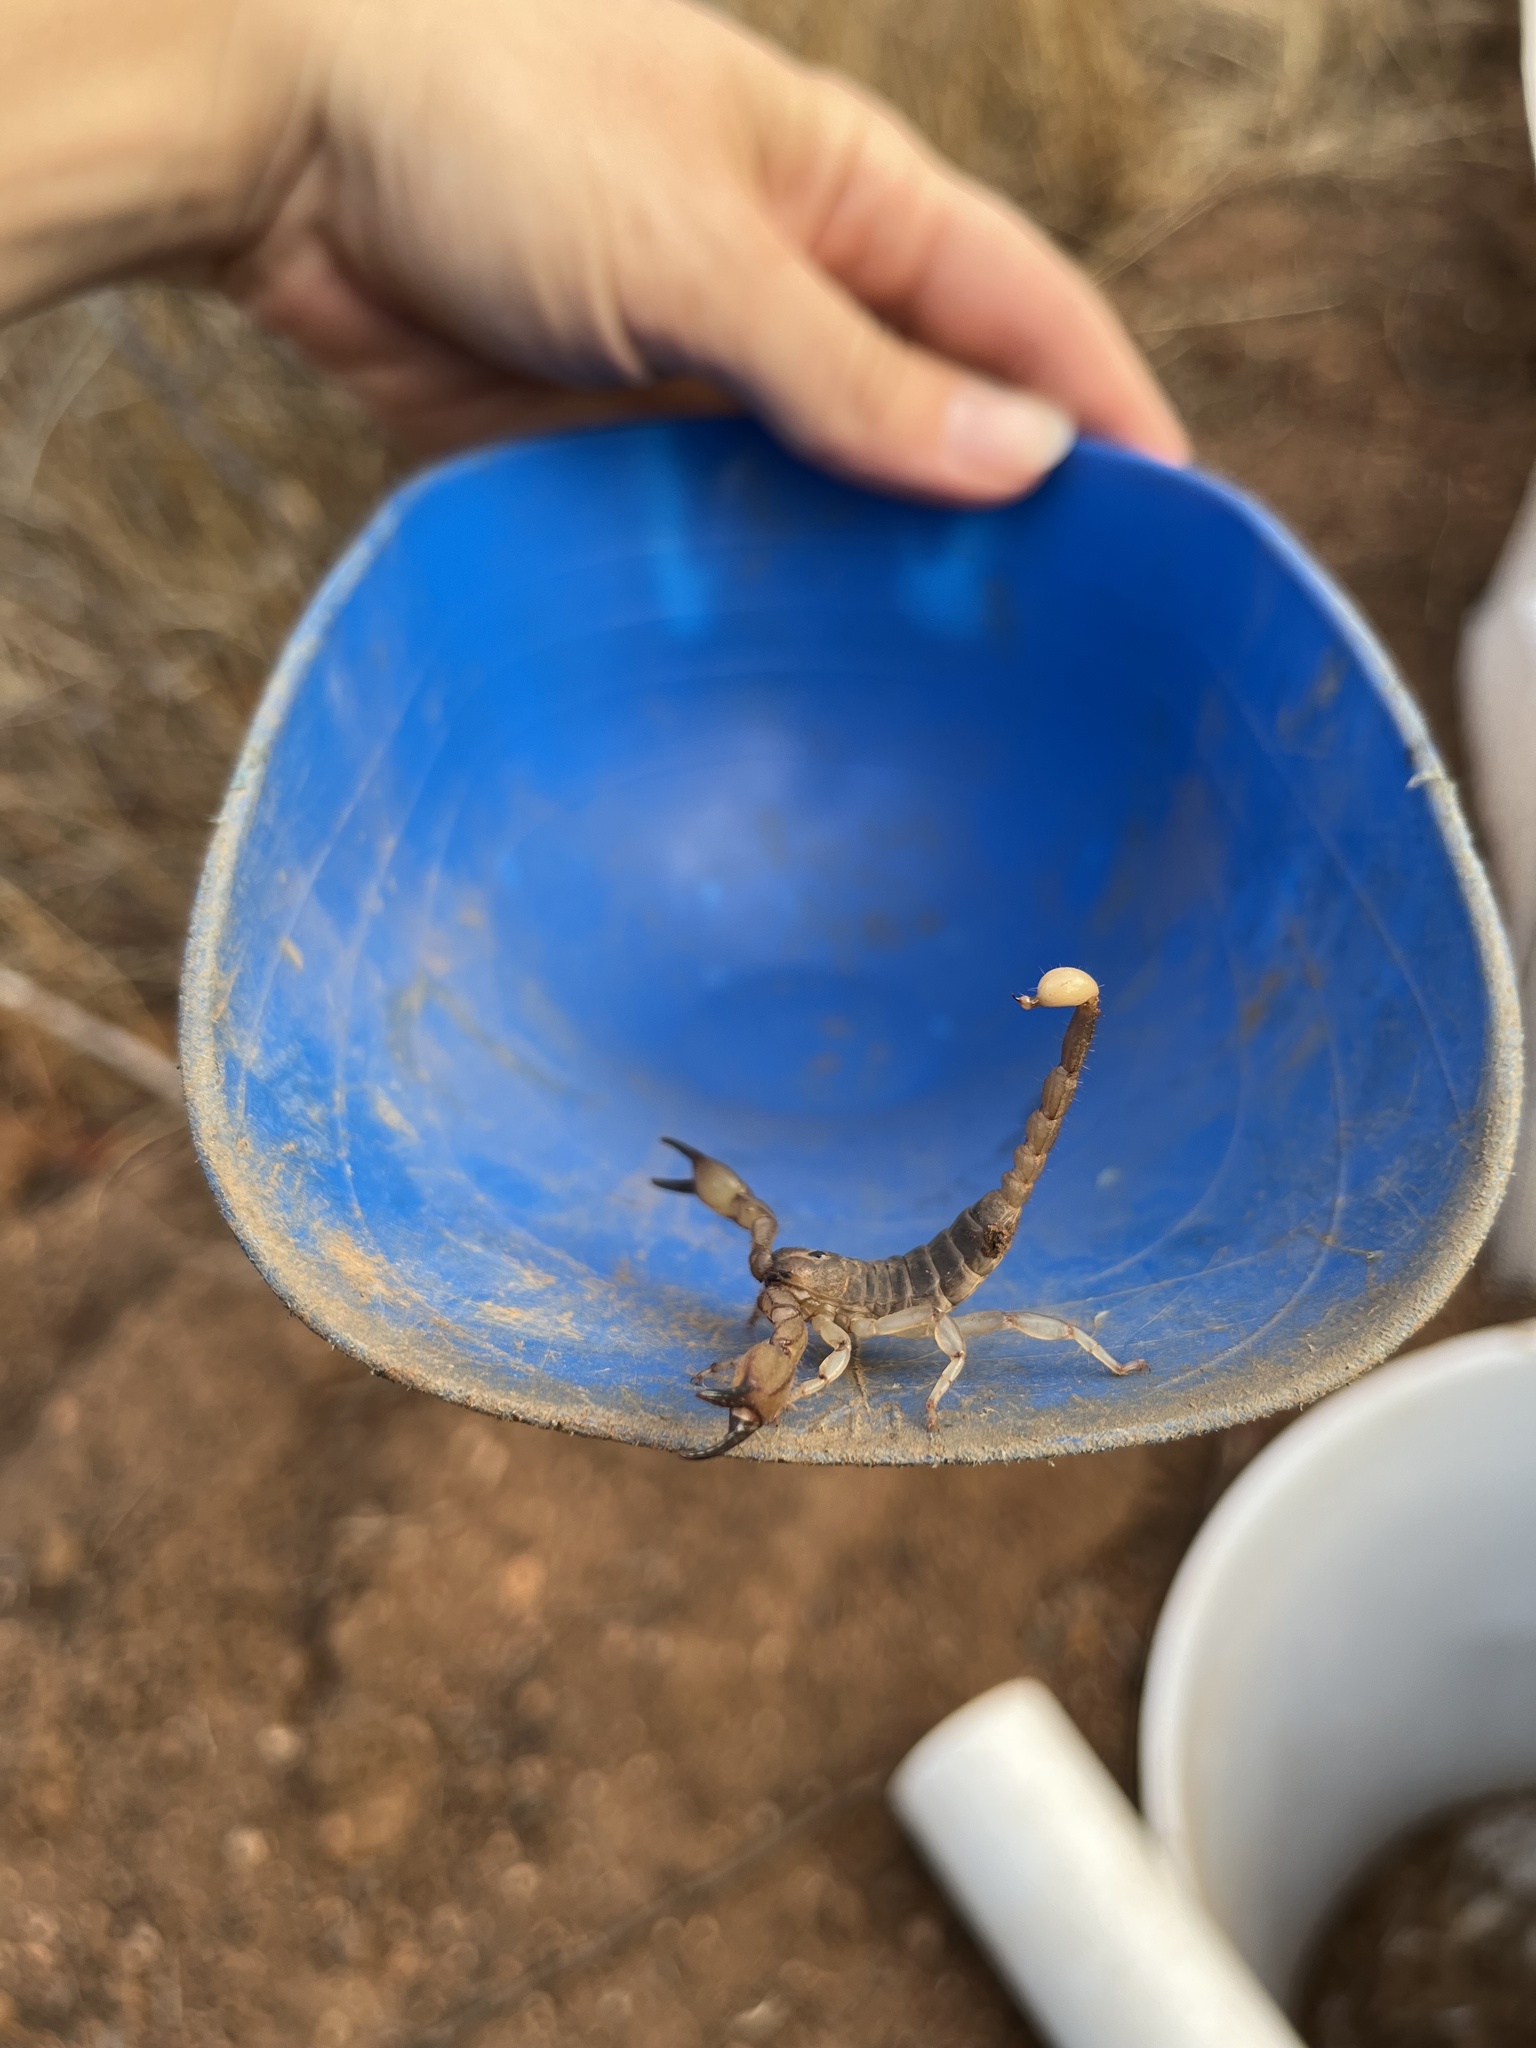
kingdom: Animalia
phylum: Arthropoda
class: Arachnida
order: Scorpiones
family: Chactidae
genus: Anuroctonus
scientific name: Anuroctonus pococki
